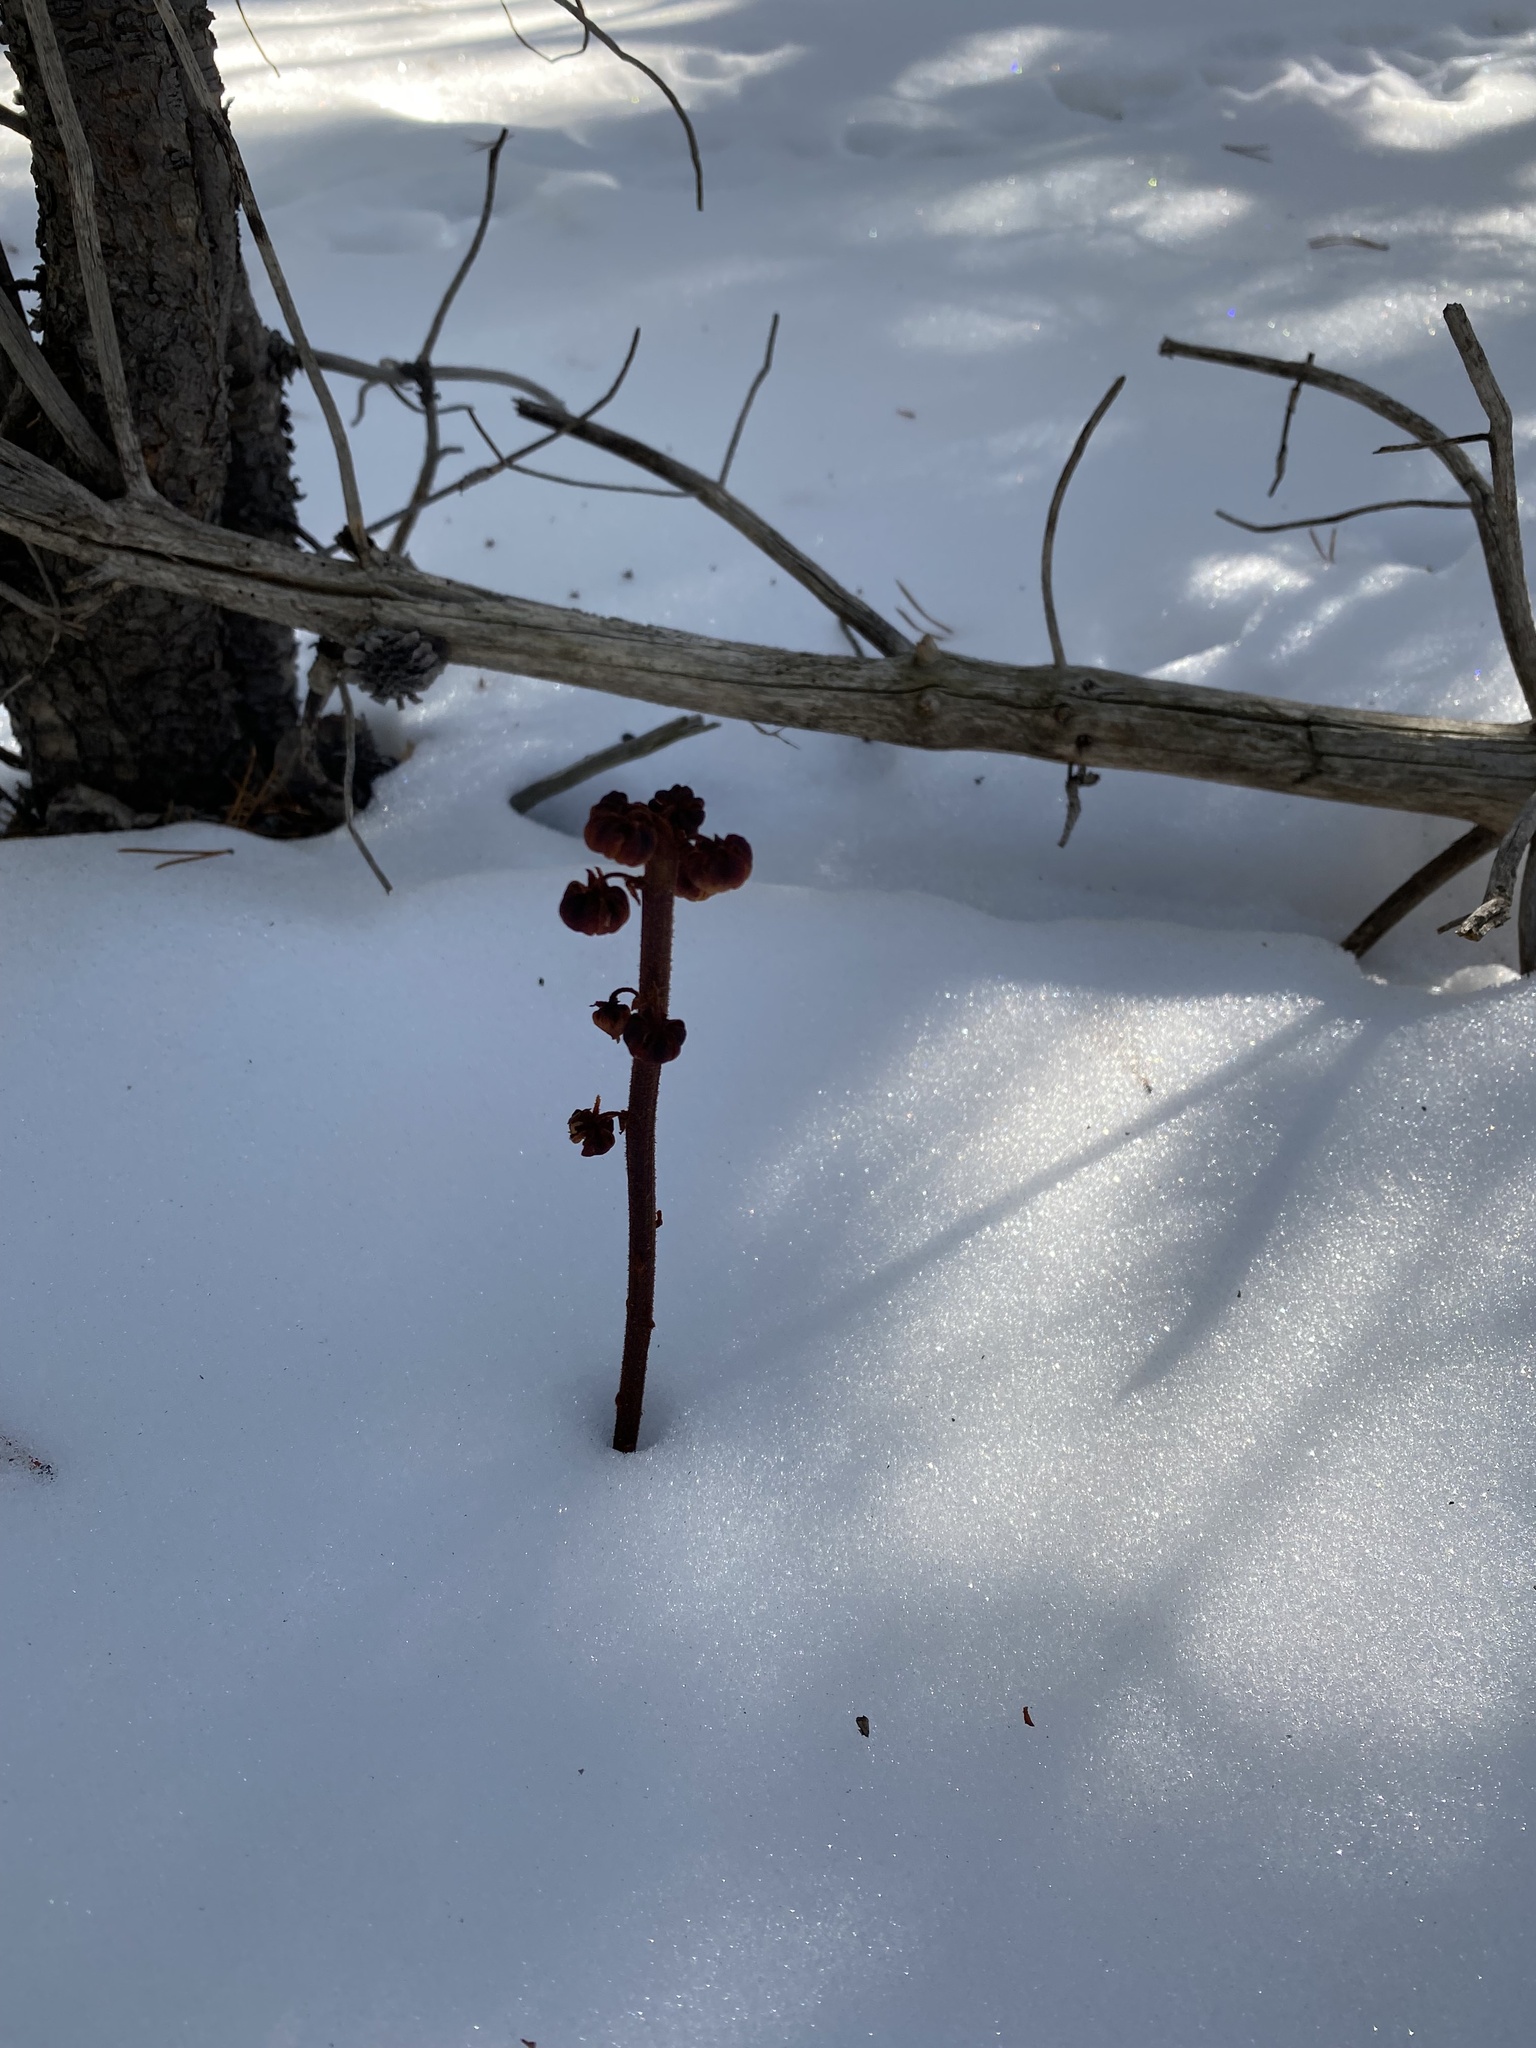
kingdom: Plantae
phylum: Tracheophyta
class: Magnoliopsida
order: Ericales
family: Ericaceae
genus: Pterospora
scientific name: Pterospora andromedea
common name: Giant bird's-nest
